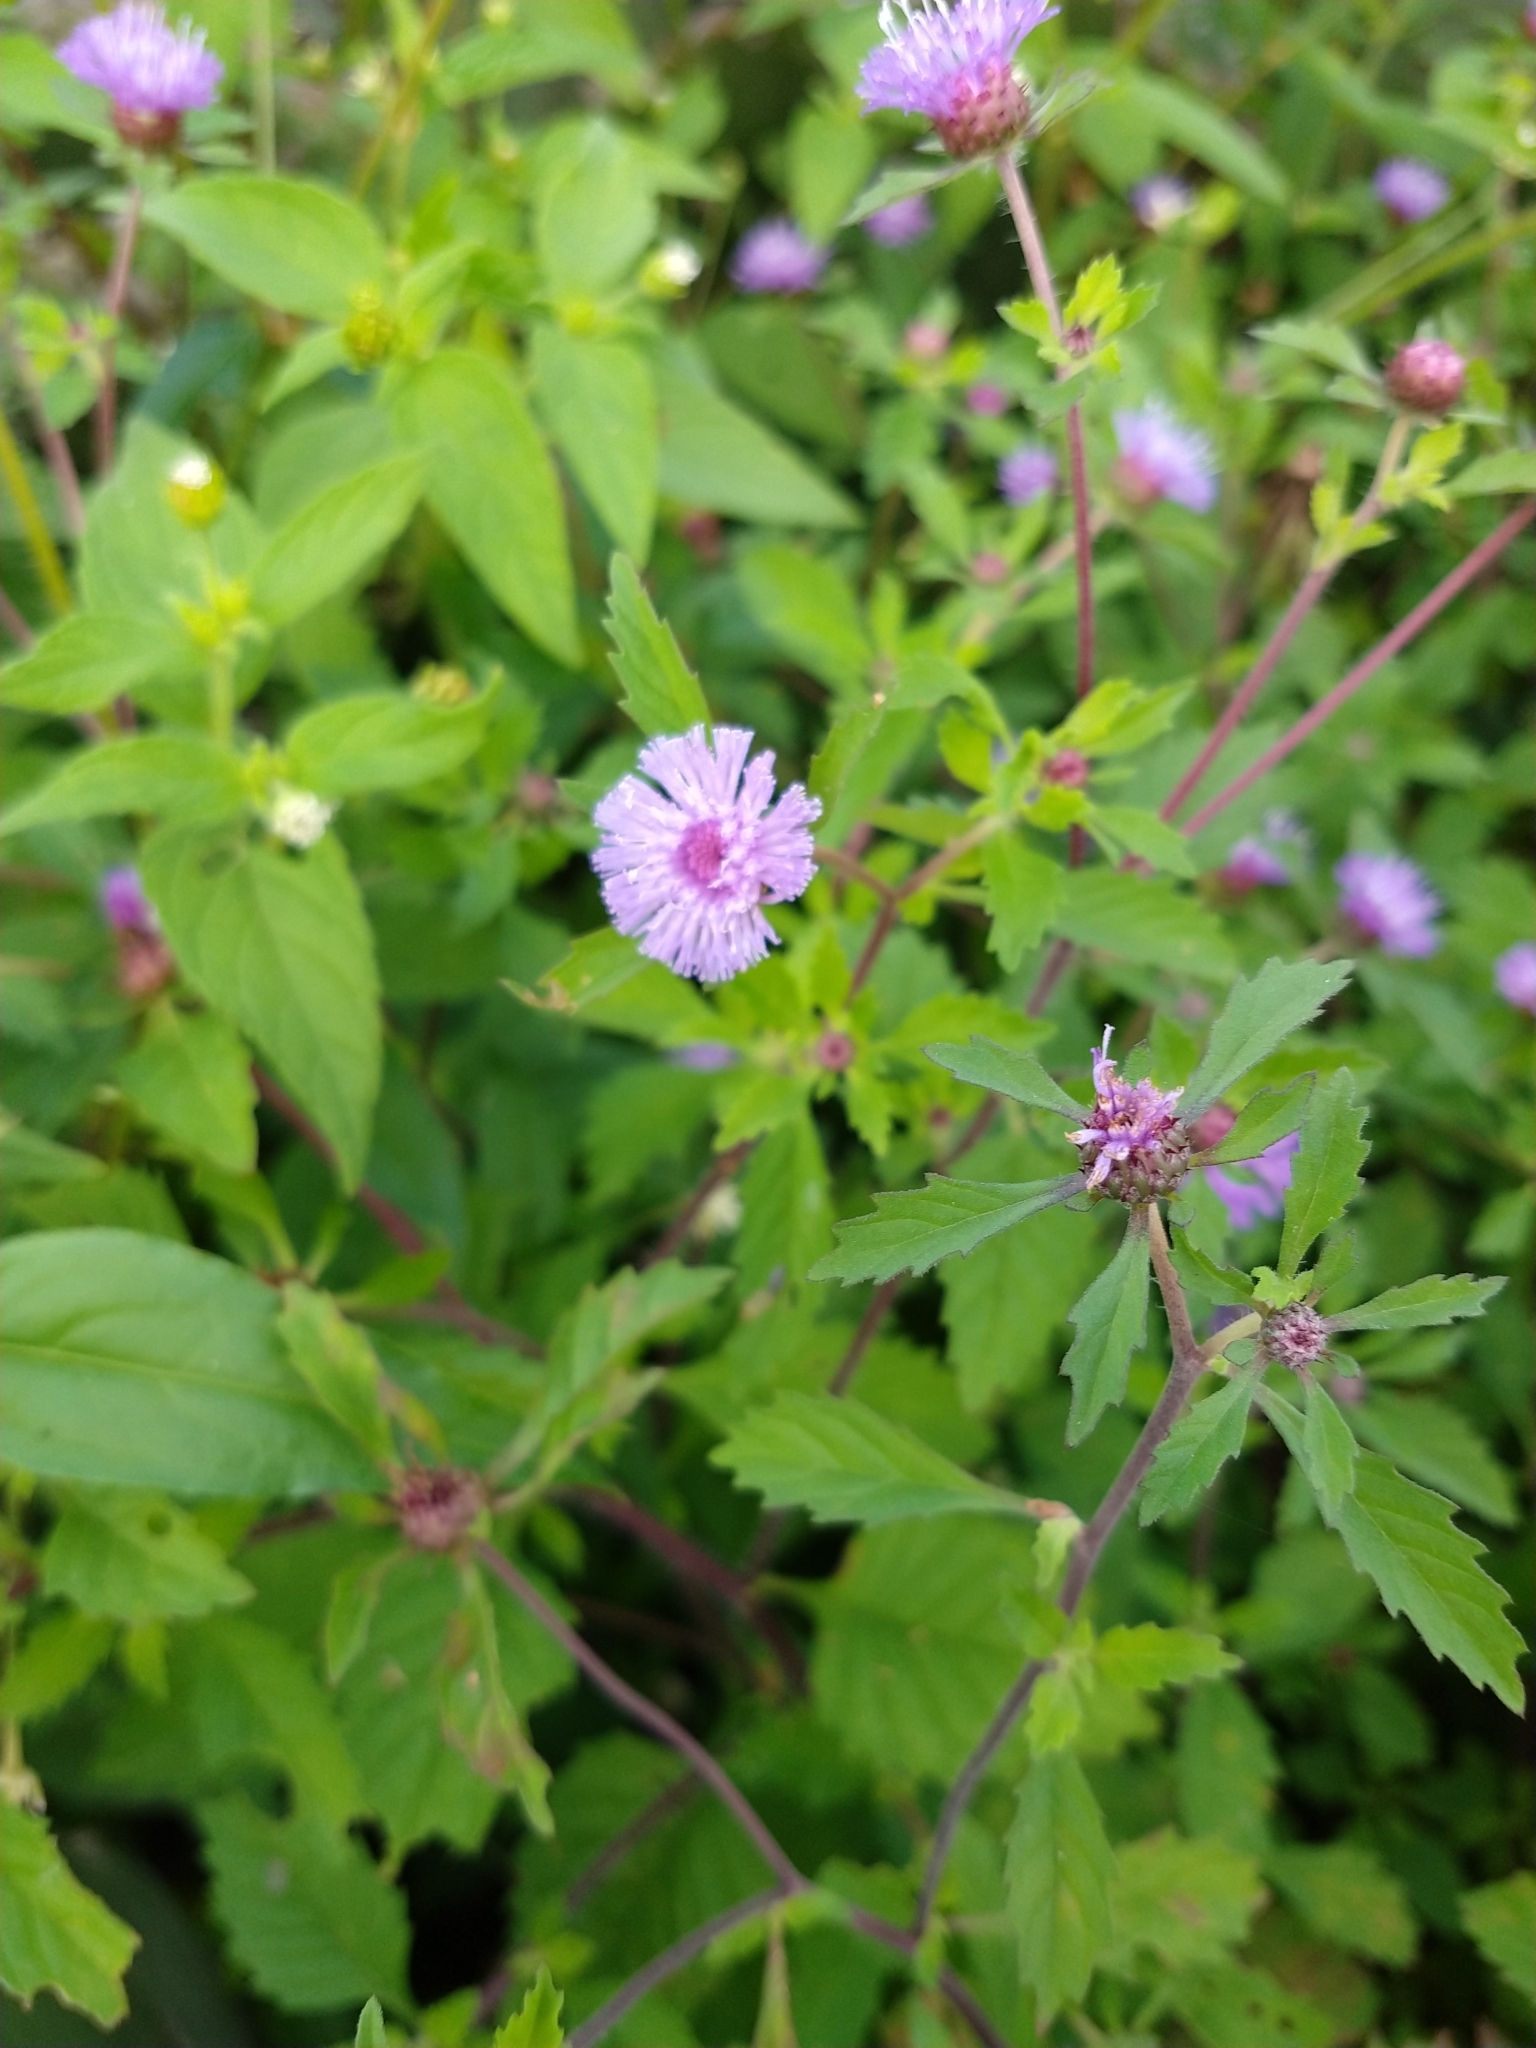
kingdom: Plantae
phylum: Tracheophyta
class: Magnoliopsida
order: Asterales
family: Asteraceae
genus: Centratherum
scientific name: Centratherum punctatum
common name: Larkdaisy
